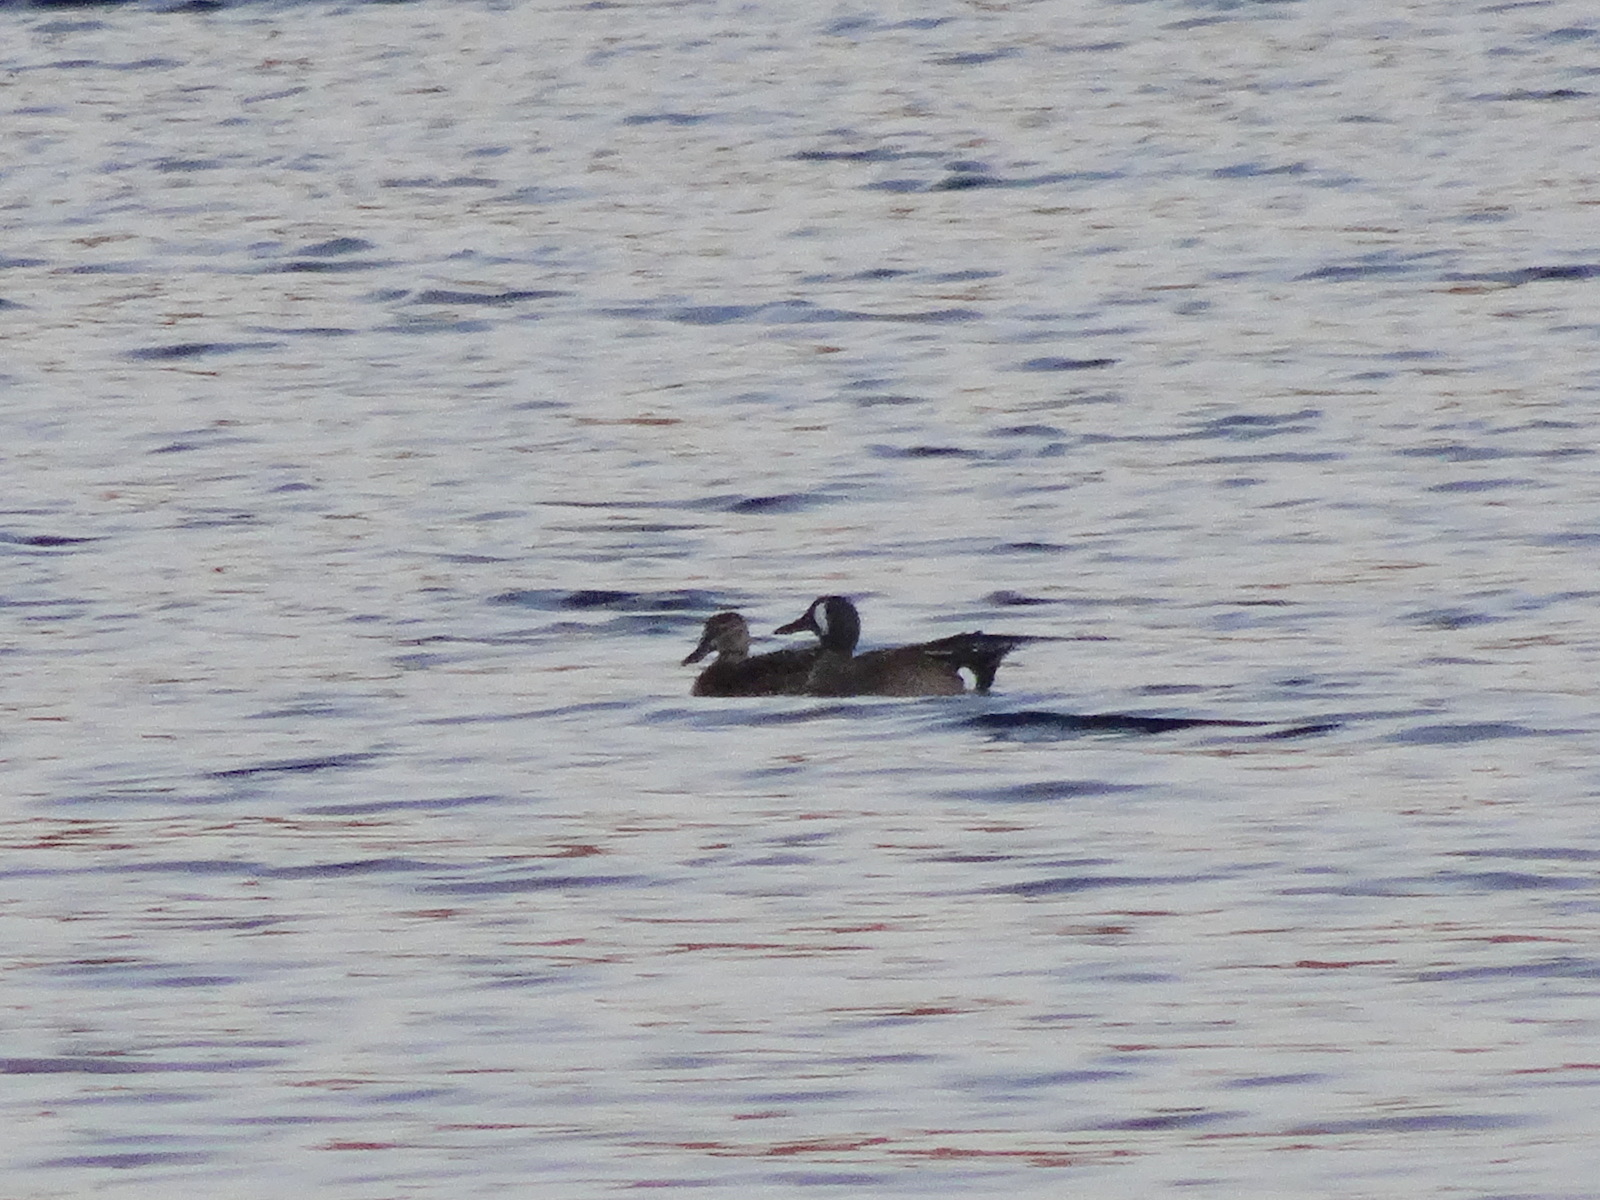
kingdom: Animalia
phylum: Chordata
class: Aves
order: Anseriformes
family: Anatidae
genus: Spatula
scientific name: Spatula discors
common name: Blue-winged teal
